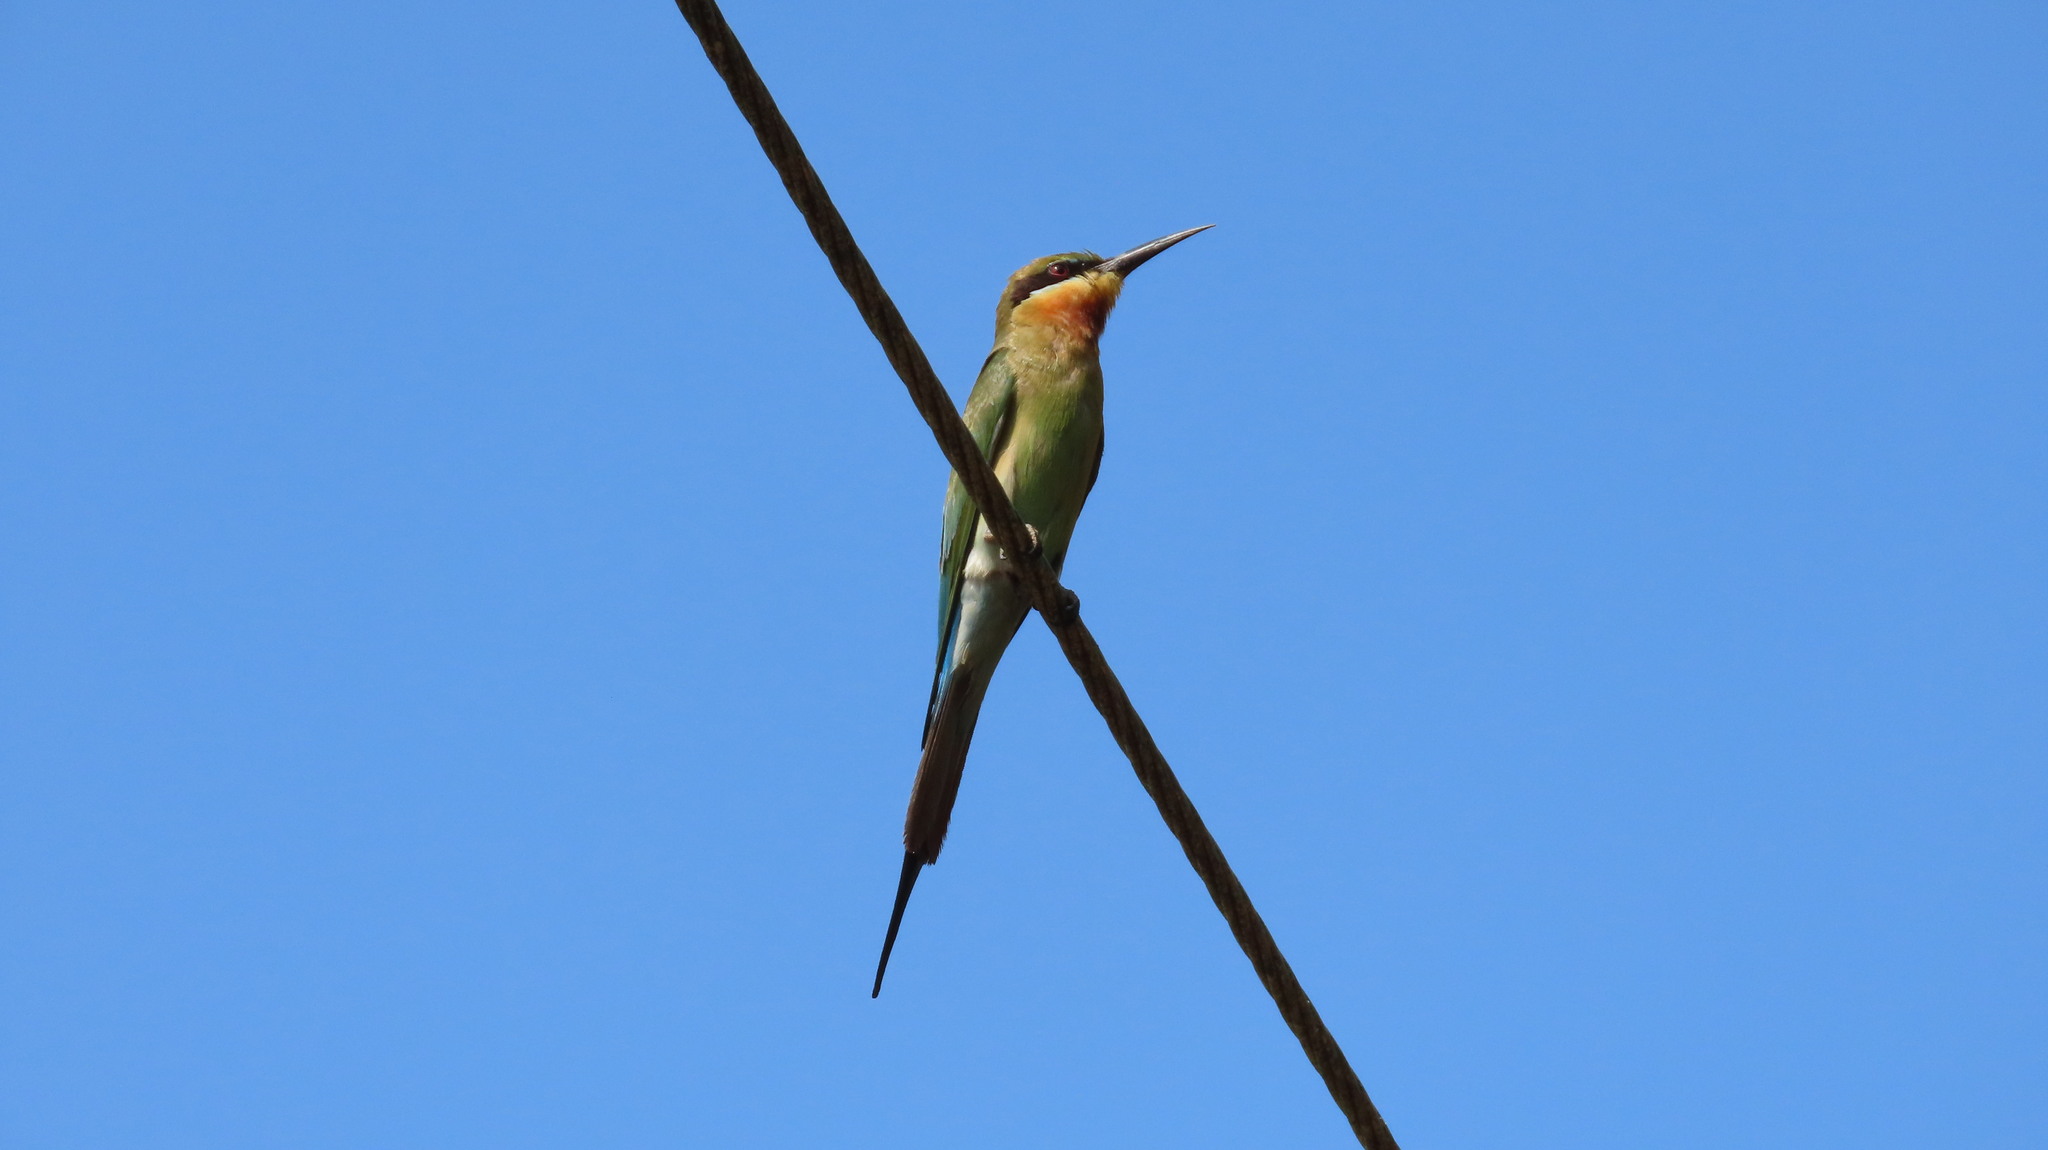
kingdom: Animalia
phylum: Chordata
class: Aves
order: Coraciiformes
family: Meropidae
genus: Merops
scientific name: Merops philippinus
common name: Blue-tailed bee-eater
